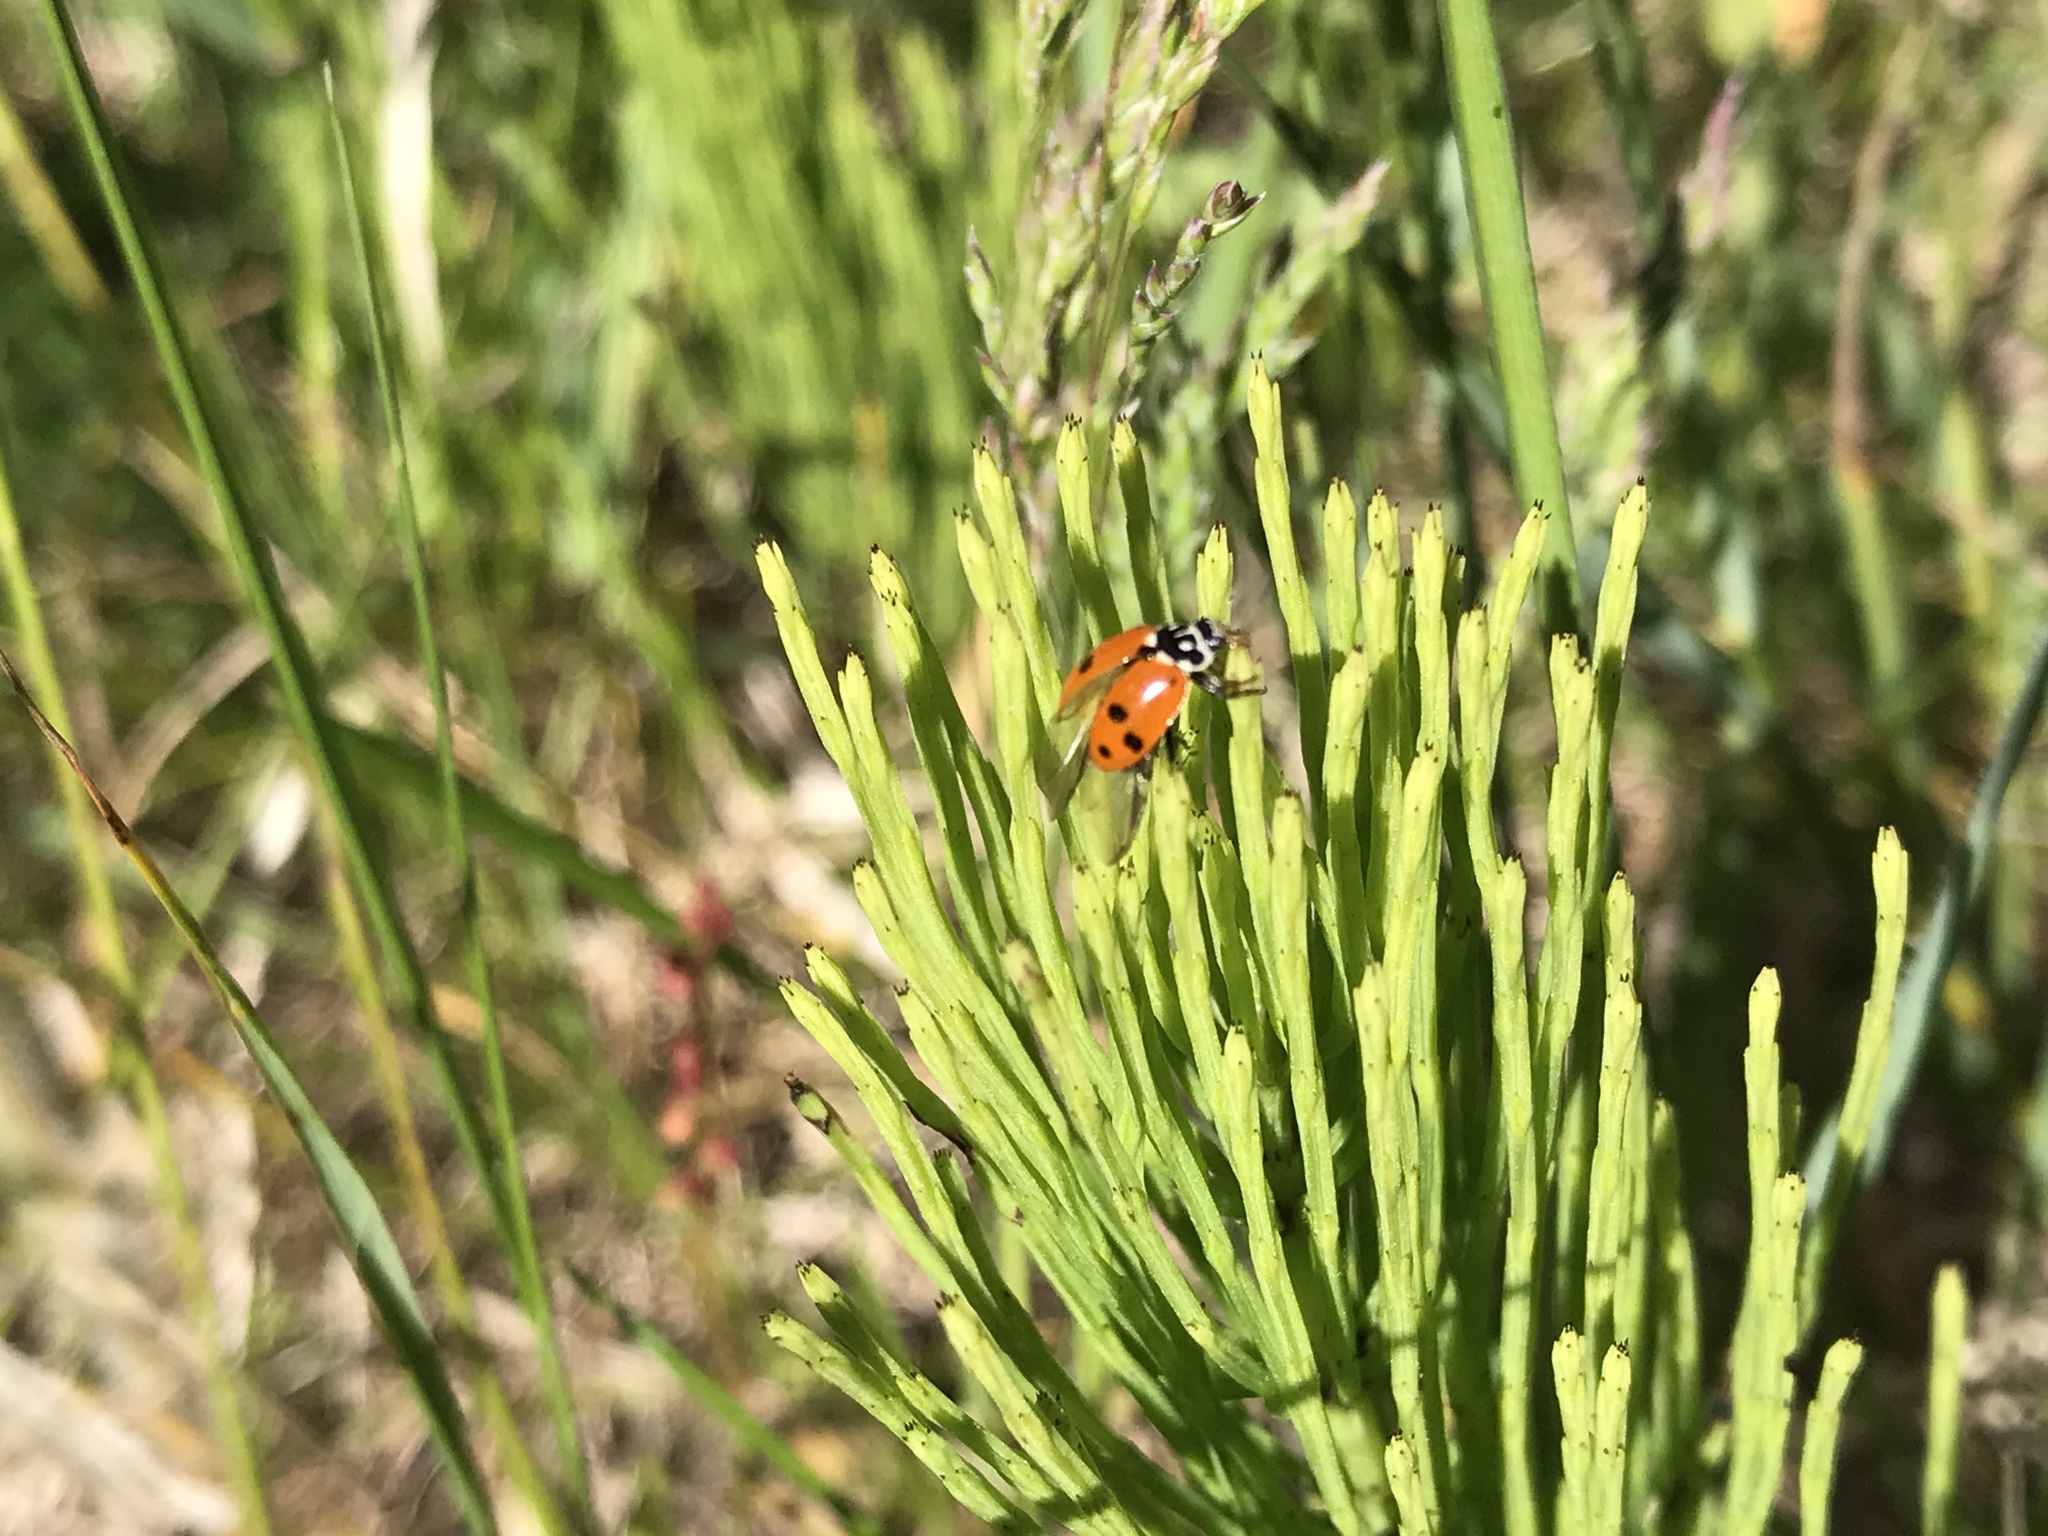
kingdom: Animalia
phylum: Arthropoda
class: Insecta
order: Coleoptera
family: Coccinellidae
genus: Hippodamia
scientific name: Hippodamia variegata
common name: Ladybird beetle
